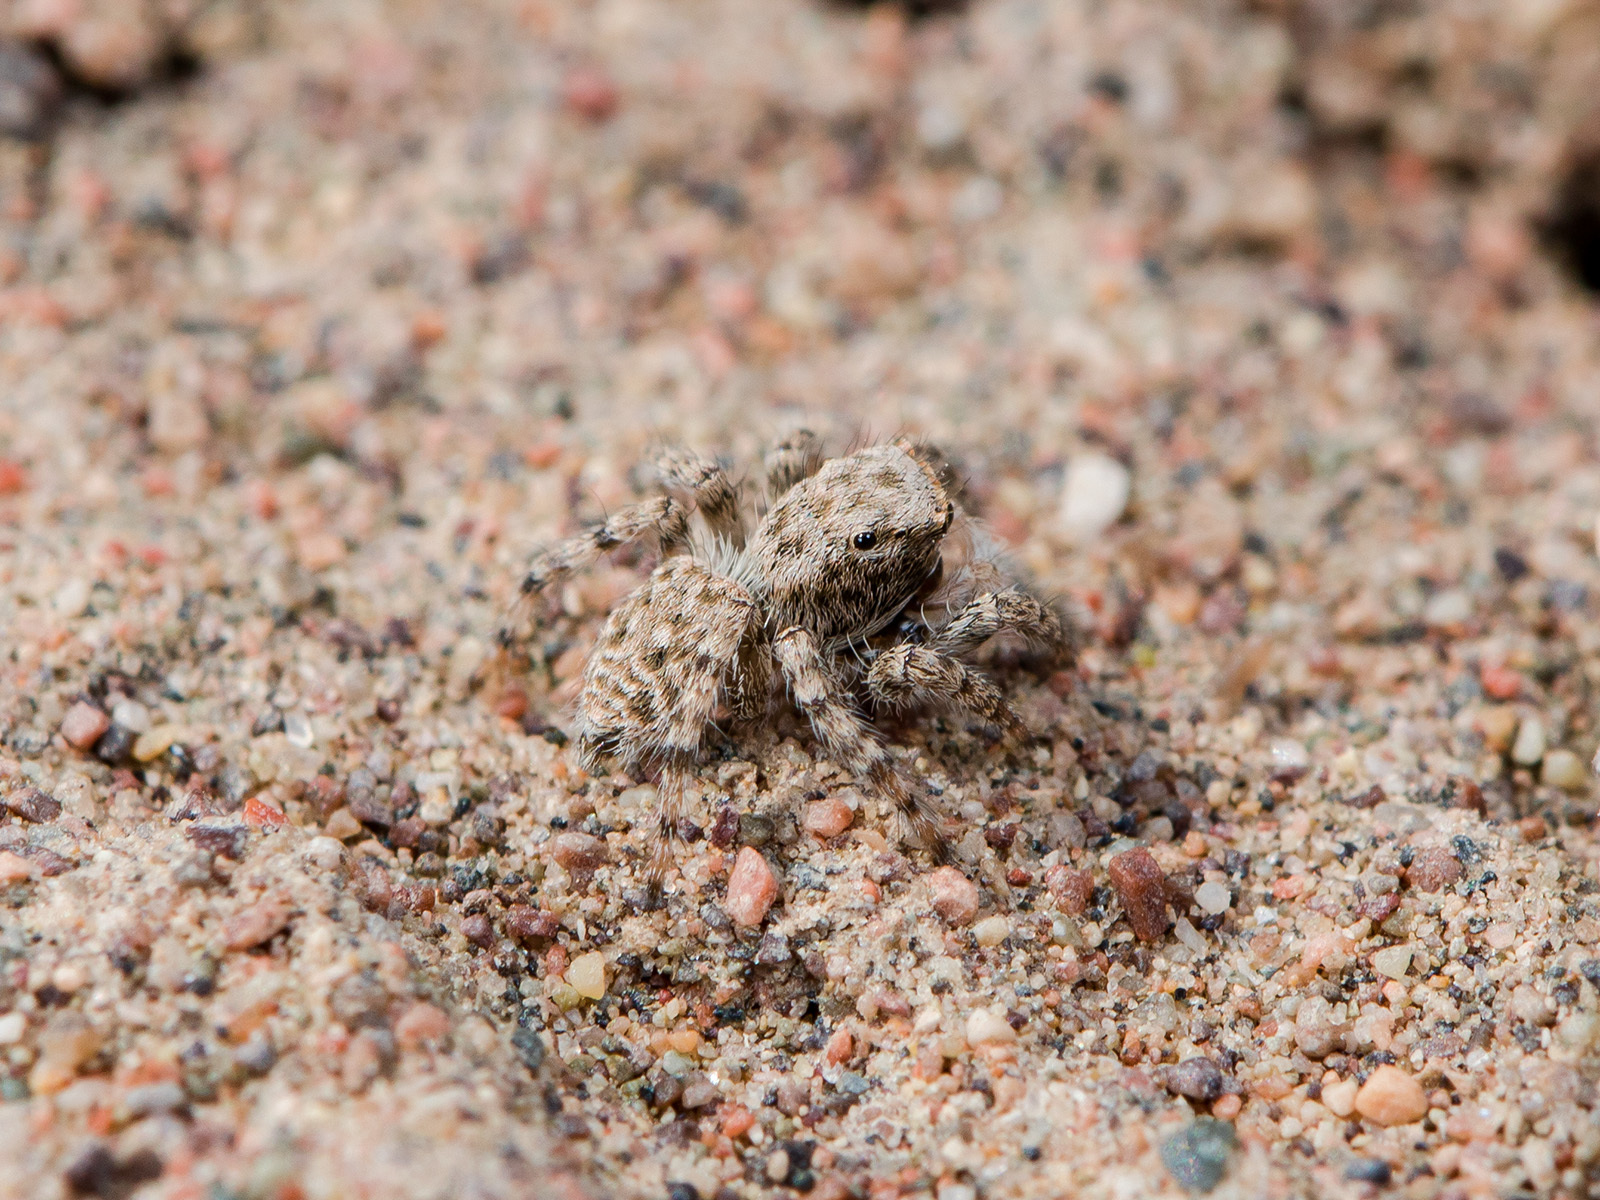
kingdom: Animalia
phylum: Arthropoda
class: Arachnida
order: Araneae
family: Salticidae
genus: Aelurillus
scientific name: Aelurillus andreevae
